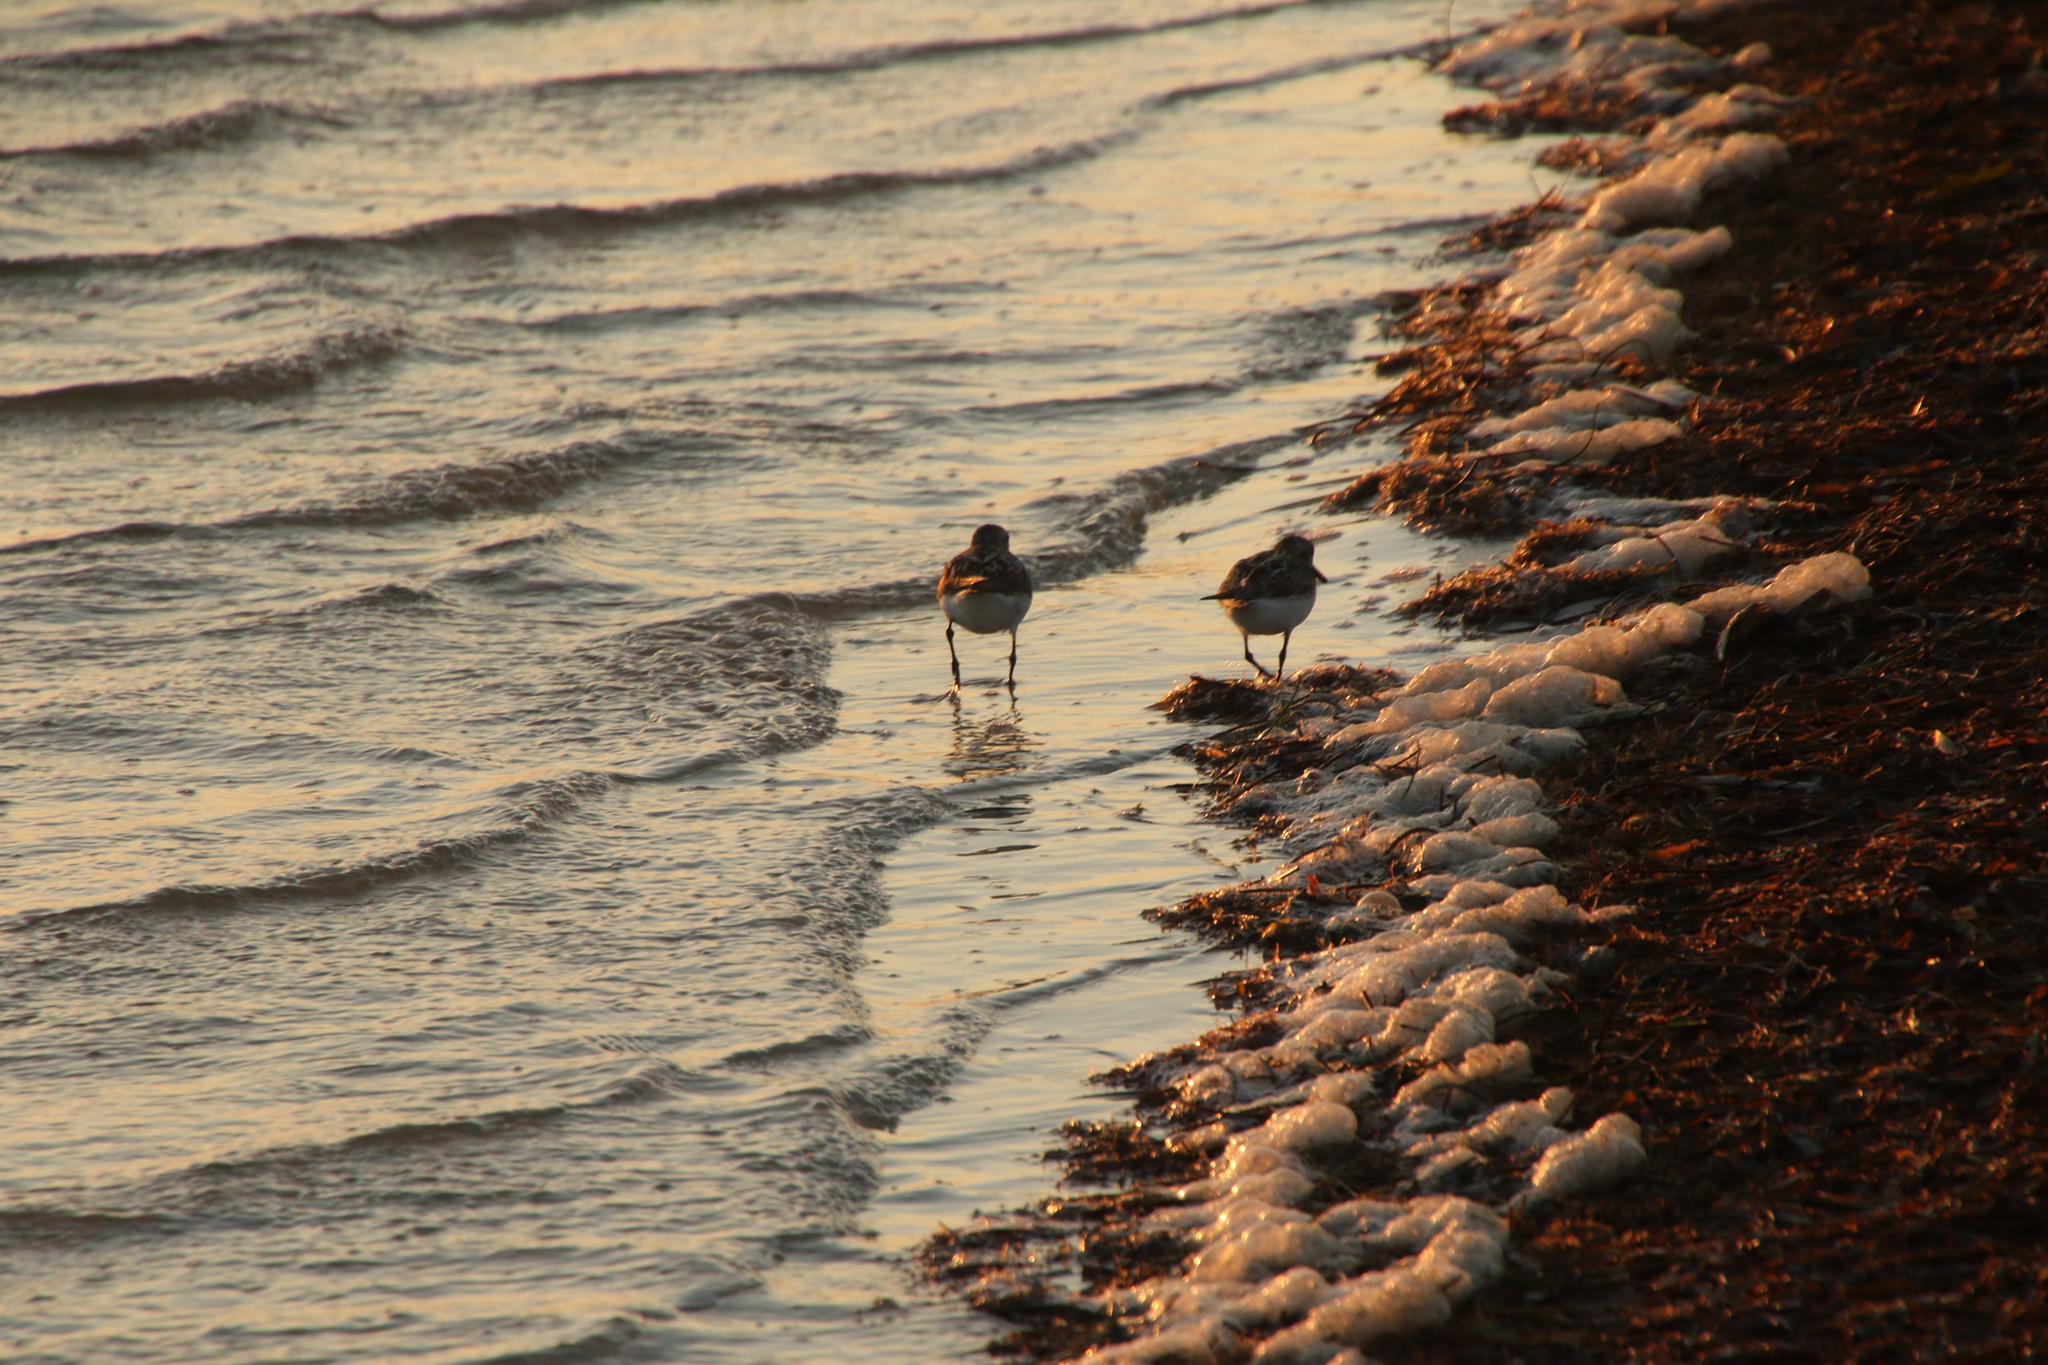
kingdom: Animalia
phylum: Chordata
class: Aves
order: Charadriiformes
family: Scolopacidae
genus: Calidris
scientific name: Calidris alba
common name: Sanderling
